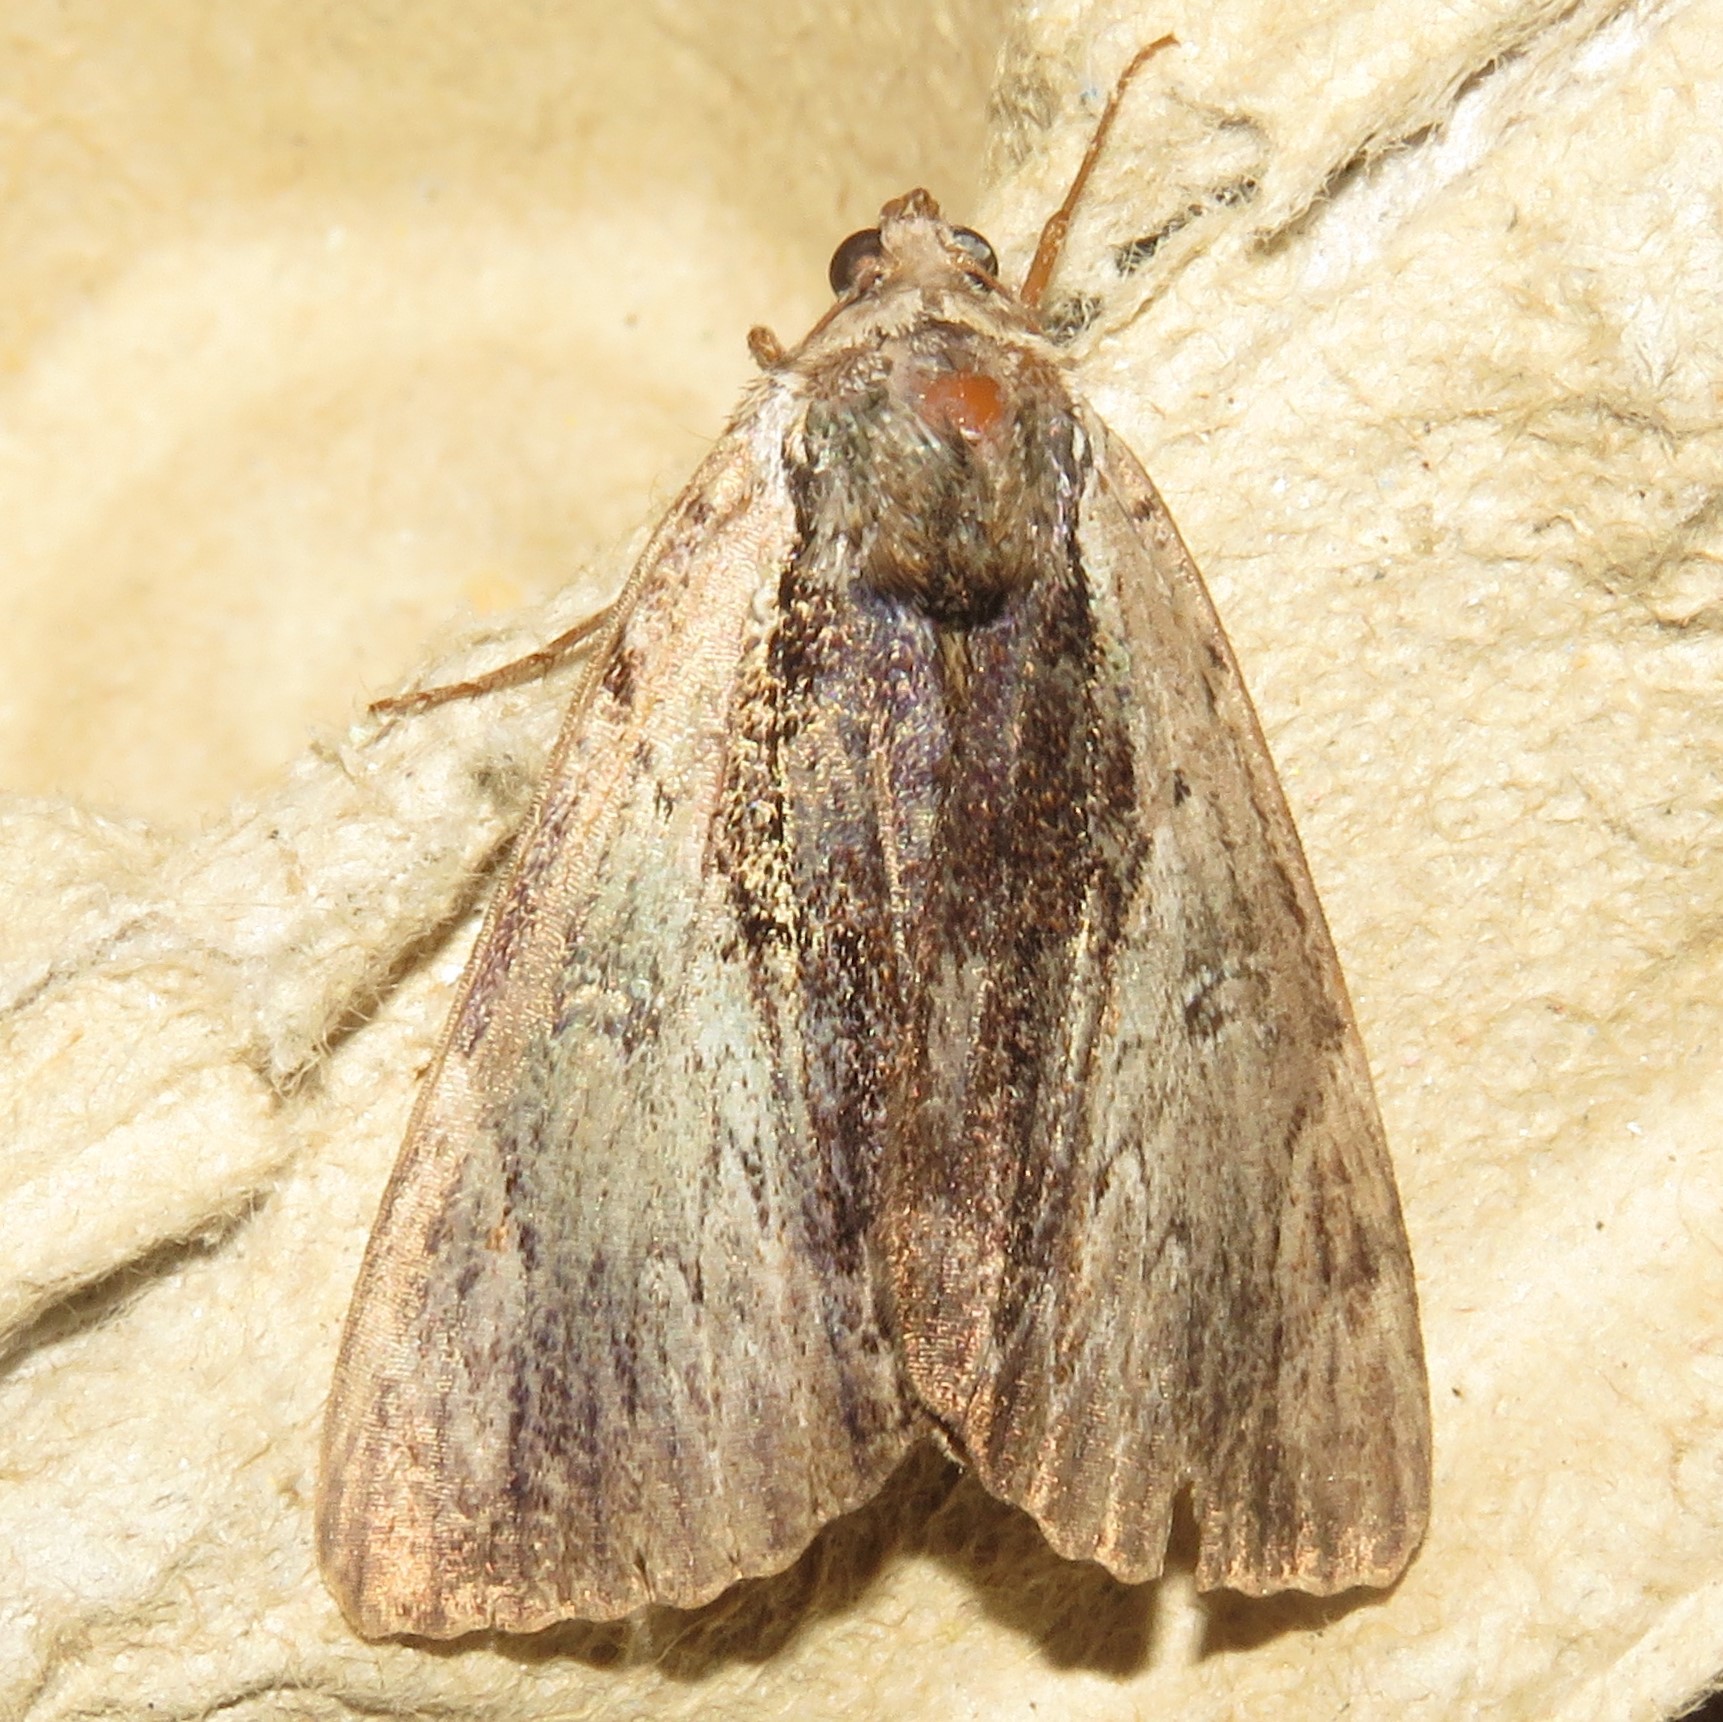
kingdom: Animalia
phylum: Arthropoda
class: Insecta
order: Lepidoptera
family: Erebidae
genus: Catocala
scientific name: Catocala ultronia
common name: Ultronia underwing
